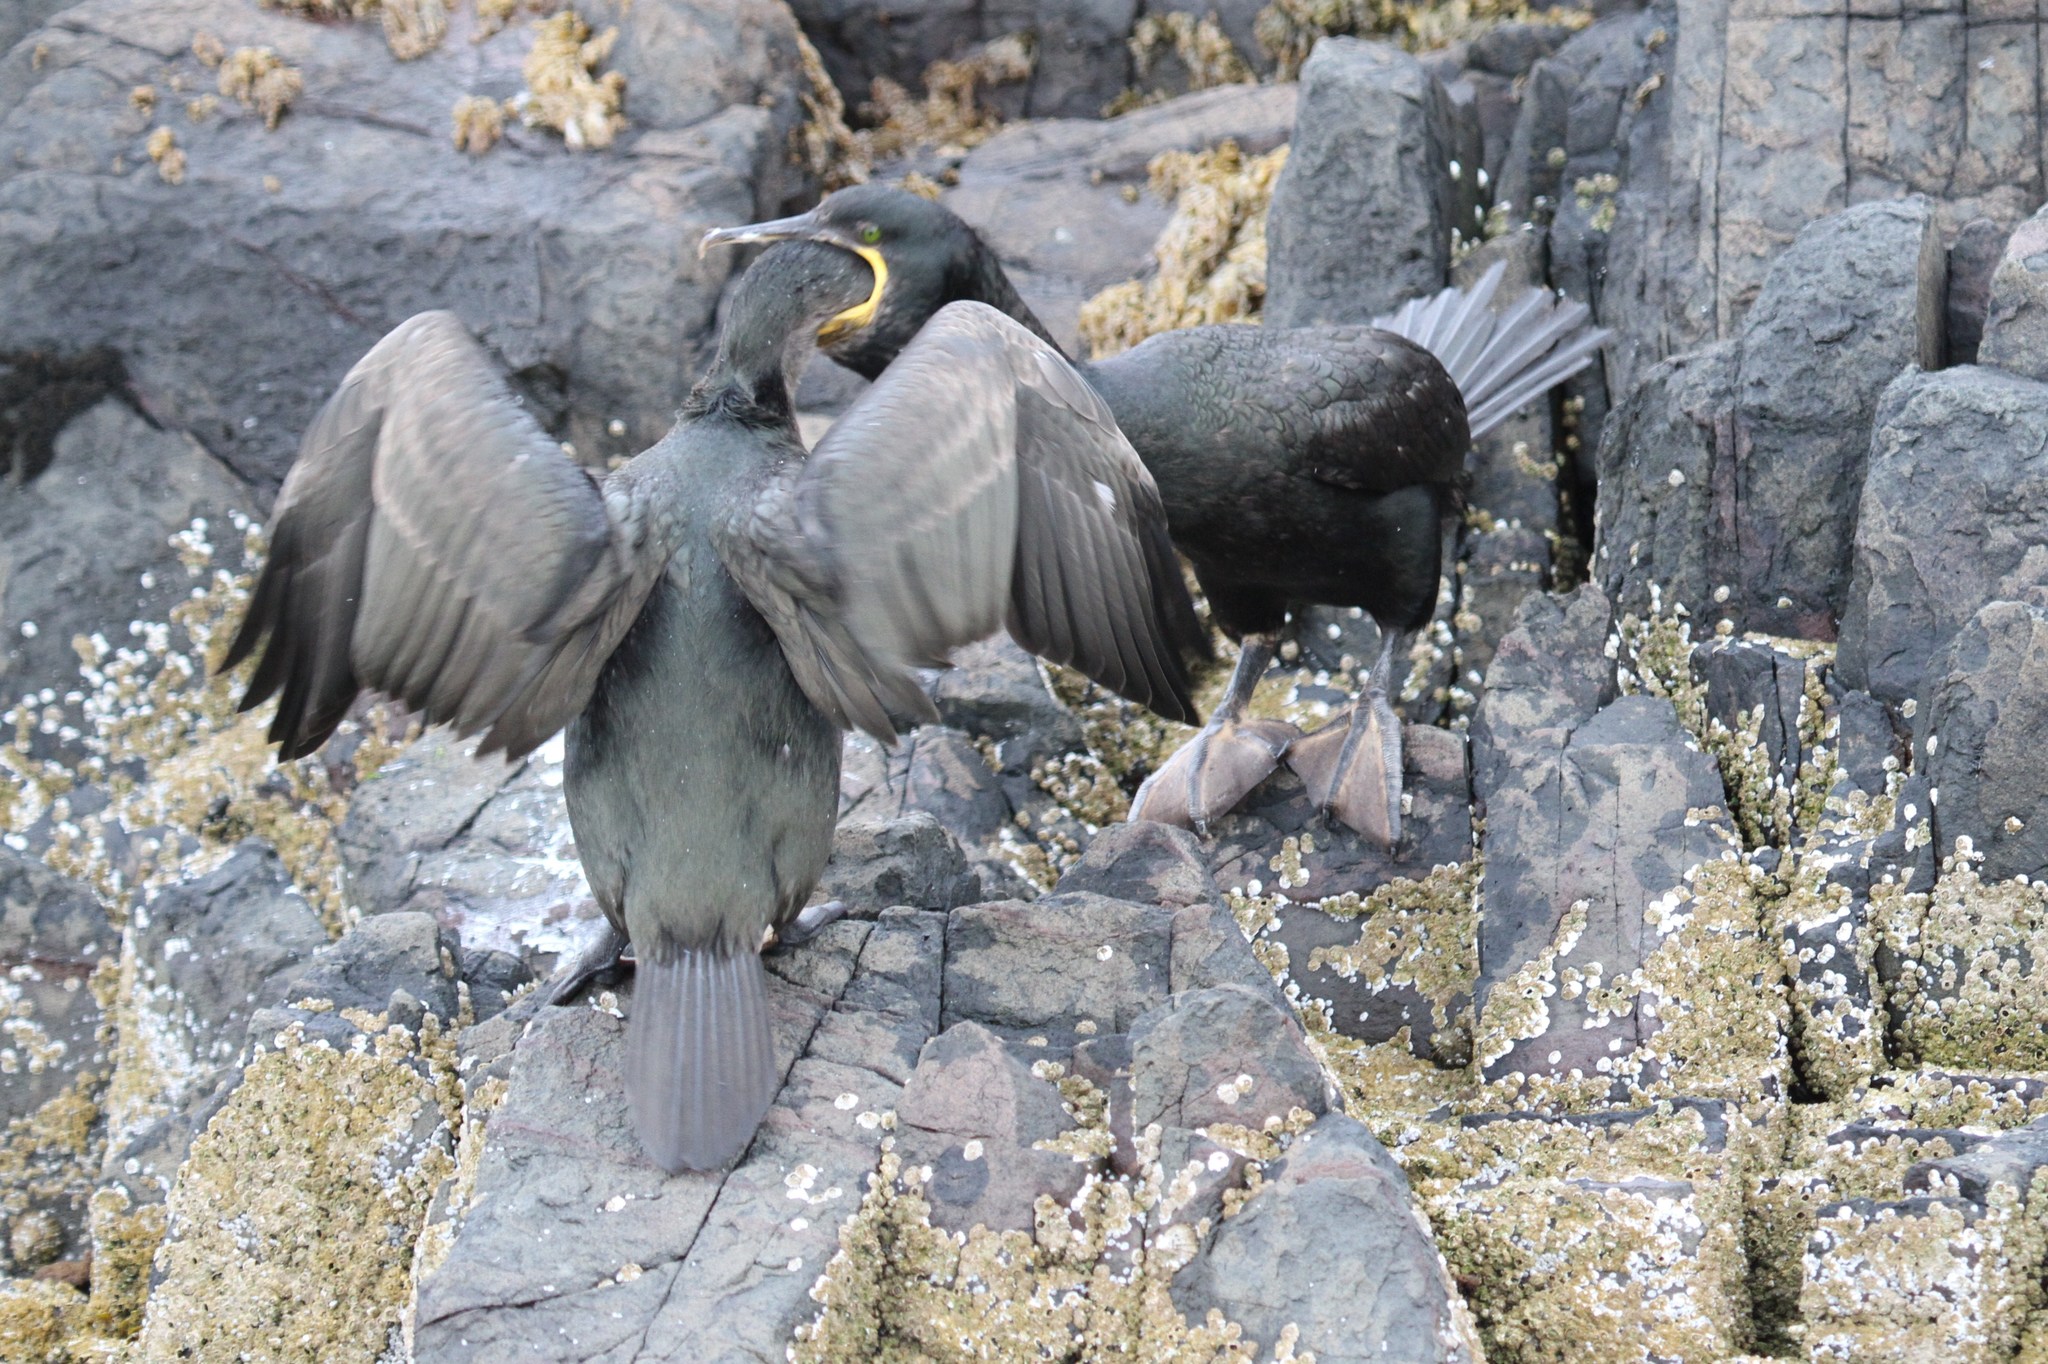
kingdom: Animalia
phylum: Chordata
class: Aves
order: Suliformes
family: Phalacrocoracidae
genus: Phalacrocorax
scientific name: Phalacrocorax aristotelis
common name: European shag
